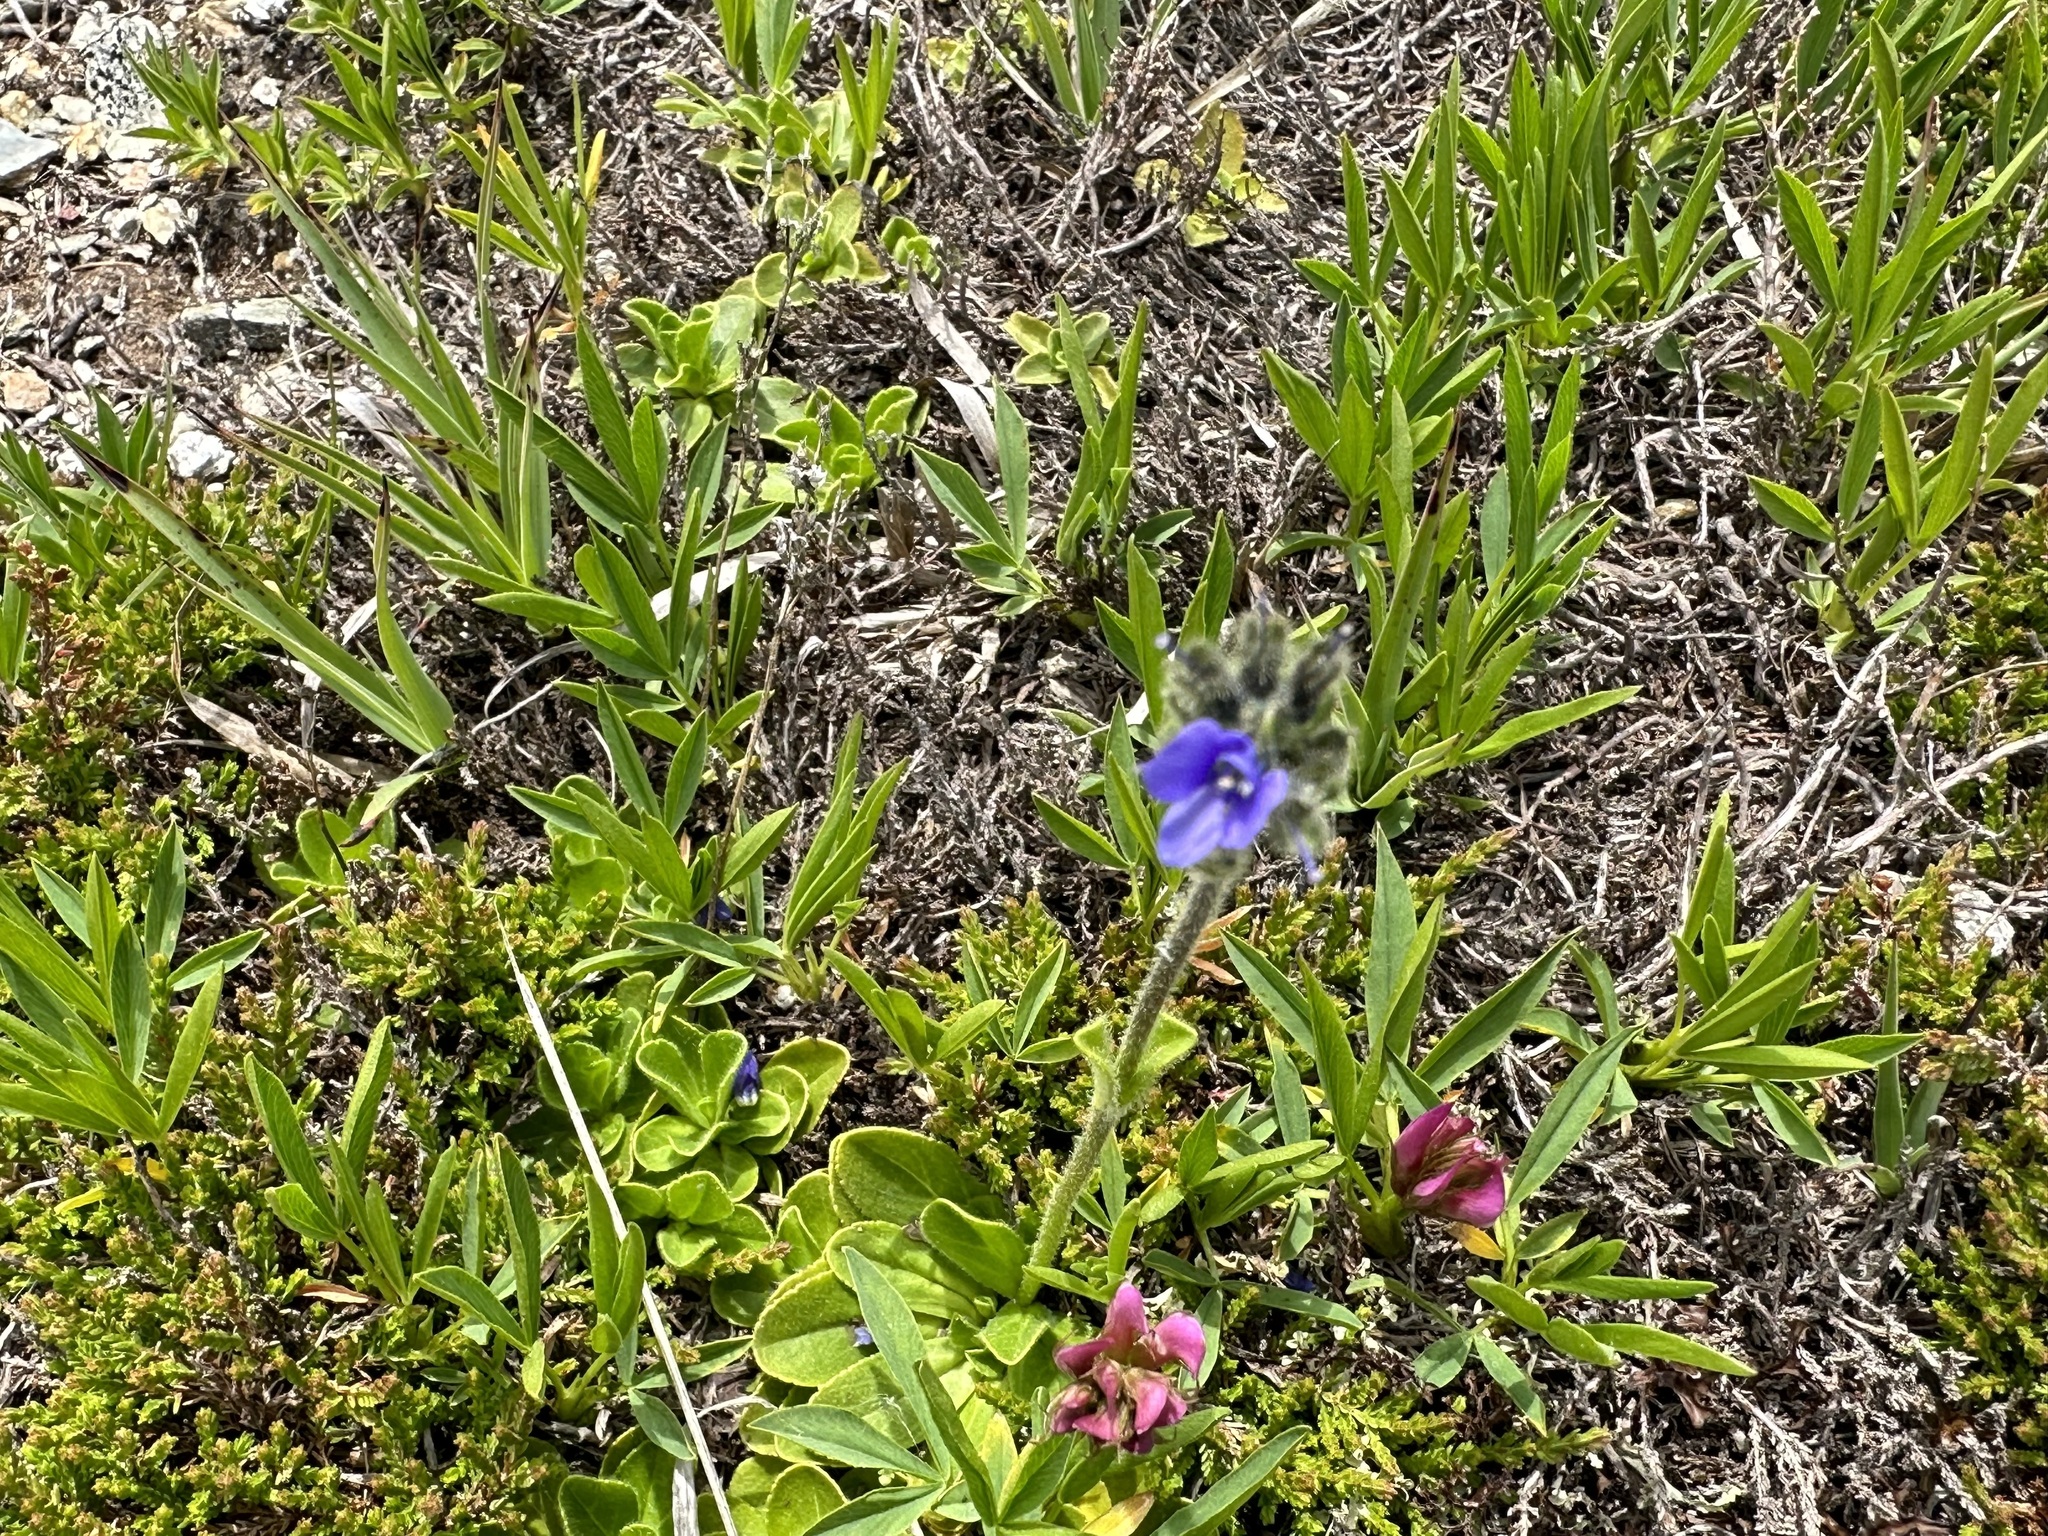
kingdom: Plantae
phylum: Tracheophyta
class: Magnoliopsida
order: Lamiales
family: Plantaginaceae
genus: Veronica
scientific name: Veronica bellidioides
